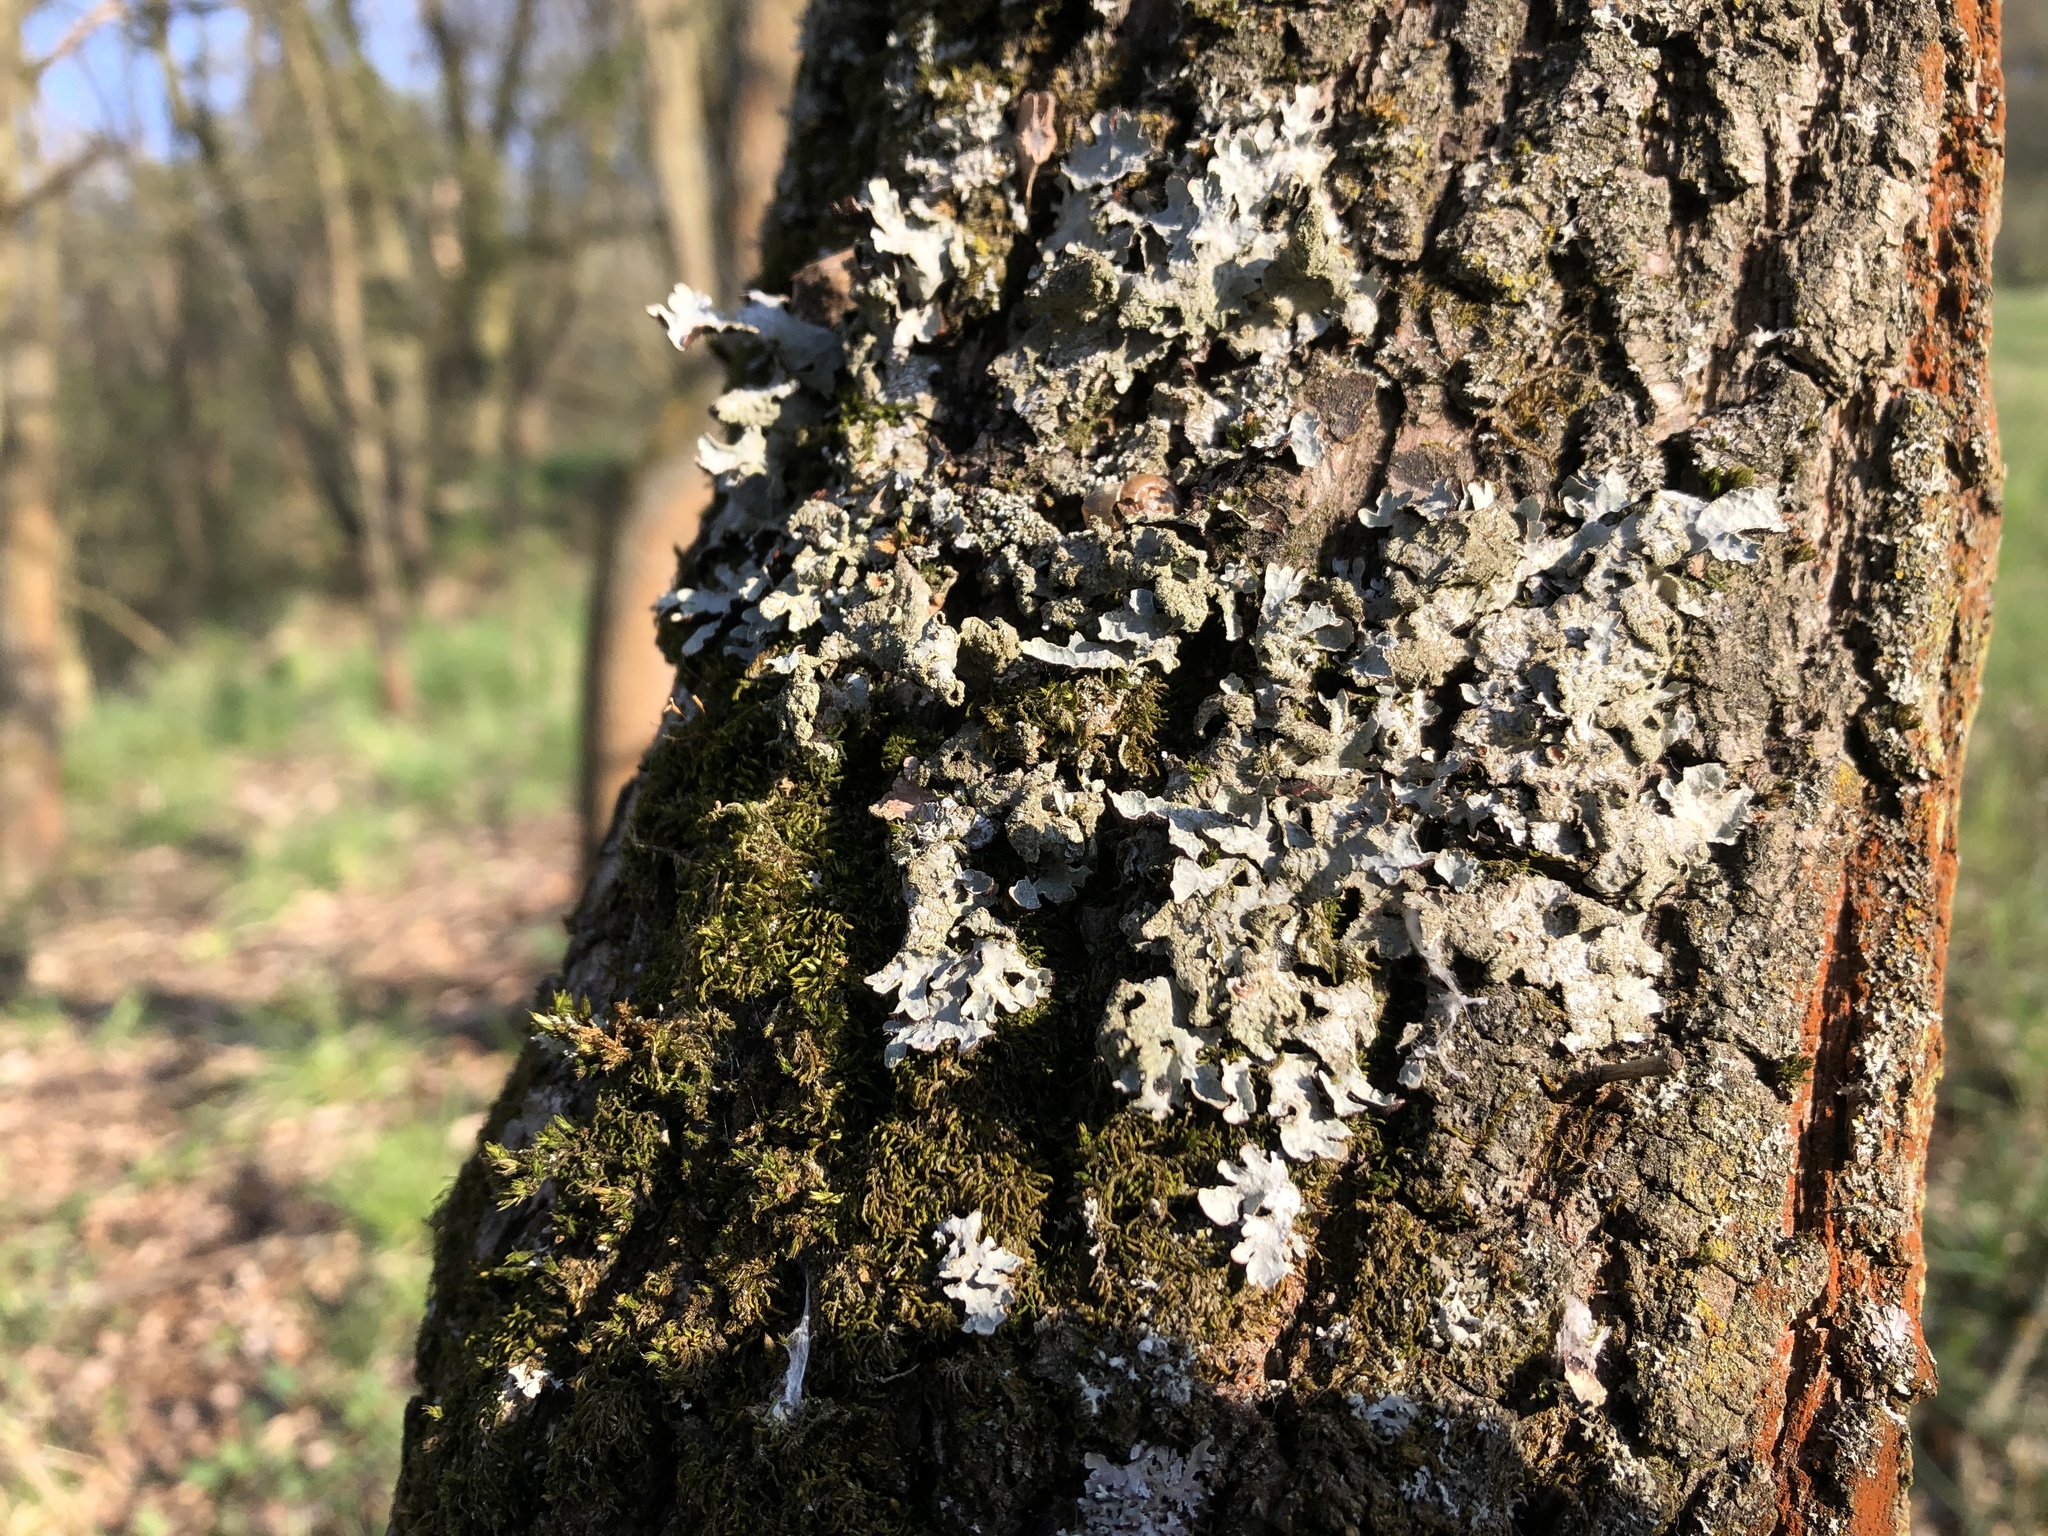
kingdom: Fungi
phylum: Ascomycota
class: Lecanoromycetes
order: Lecanorales
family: Parmeliaceae
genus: Parmelia
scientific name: Parmelia sulcata
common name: Netted shield lichen
